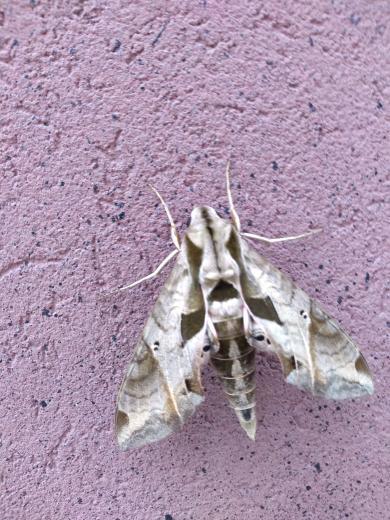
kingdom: Animalia
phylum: Arthropoda
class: Insecta
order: Lepidoptera
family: Sphingidae
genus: Eumorpha
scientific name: Eumorpha analis
